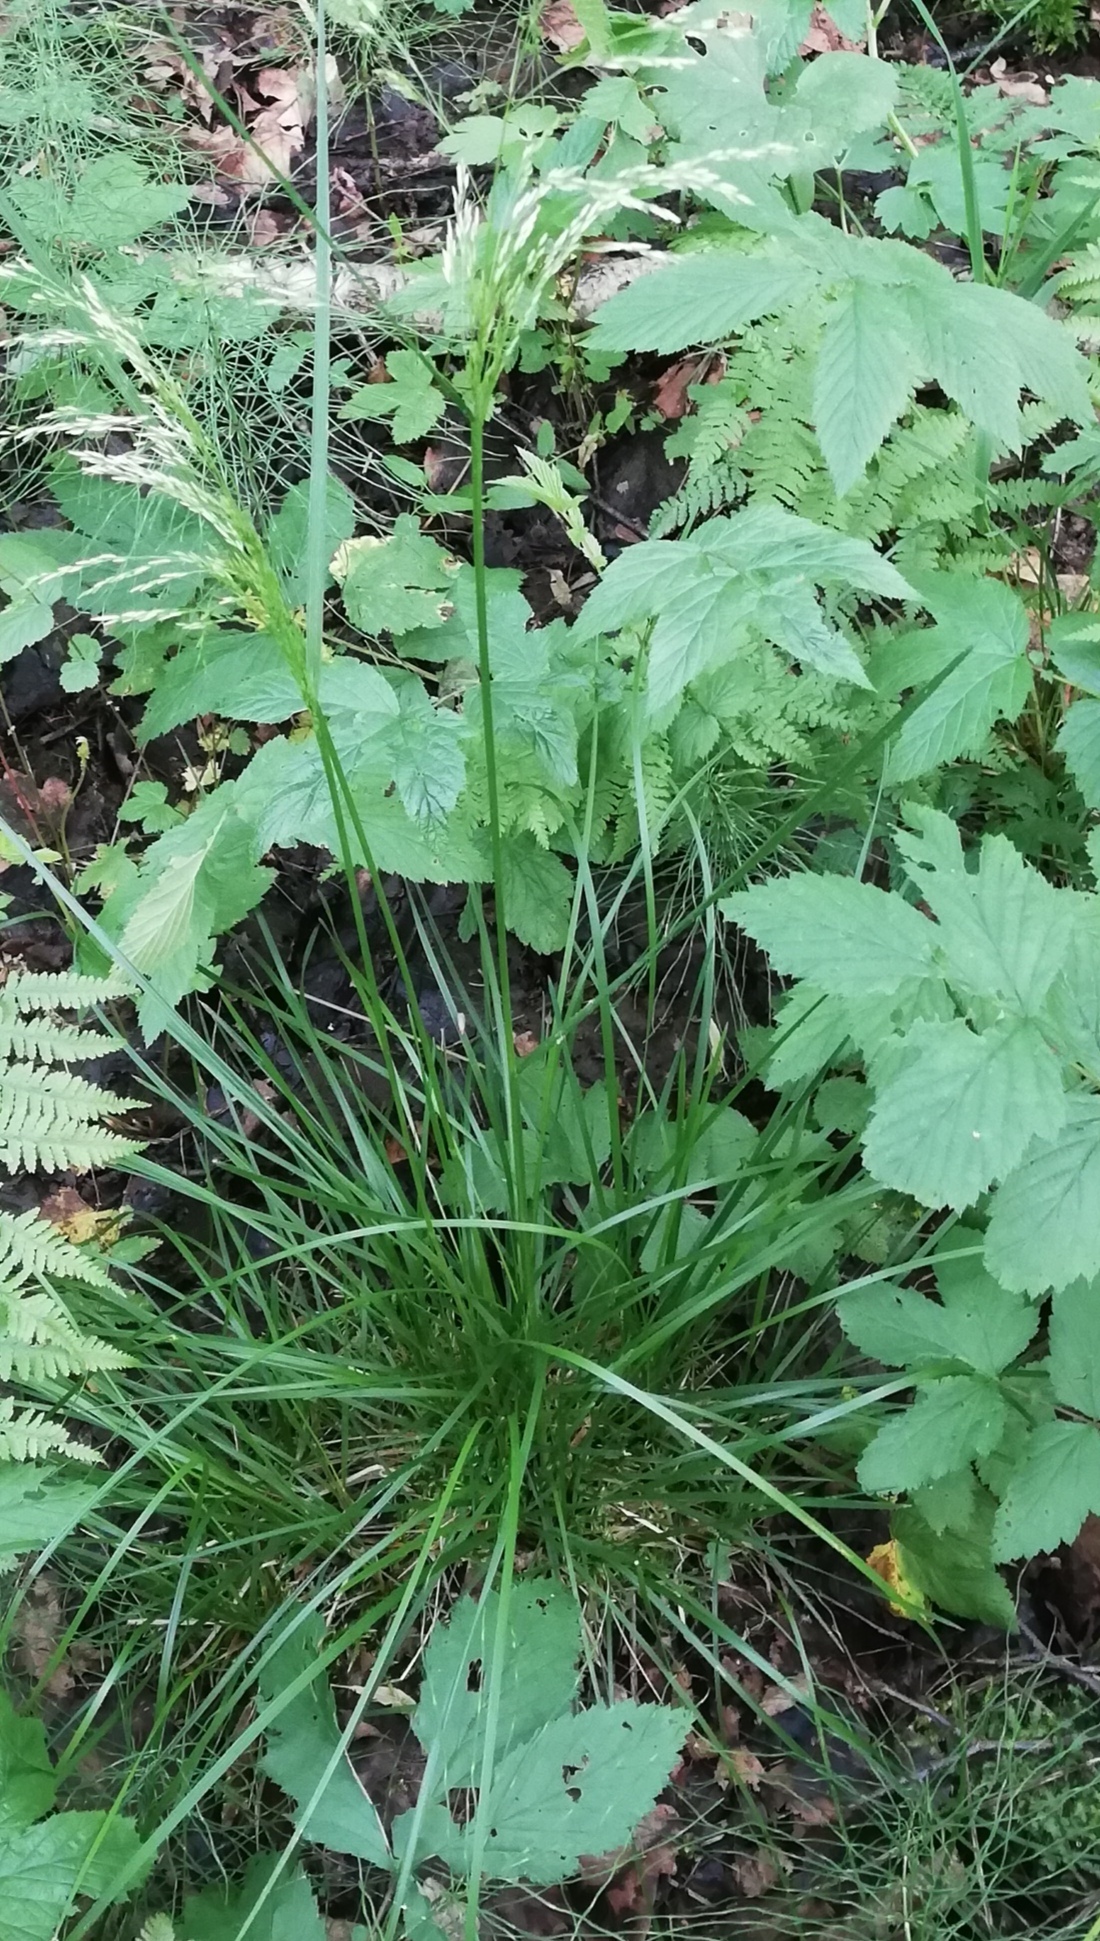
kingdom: Plantae
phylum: Tracheophyta
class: Liliopsida
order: Poales
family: Poaceae
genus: Deschampsia
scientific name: Deschampsia cespitosa
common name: Tufted hair-grass
